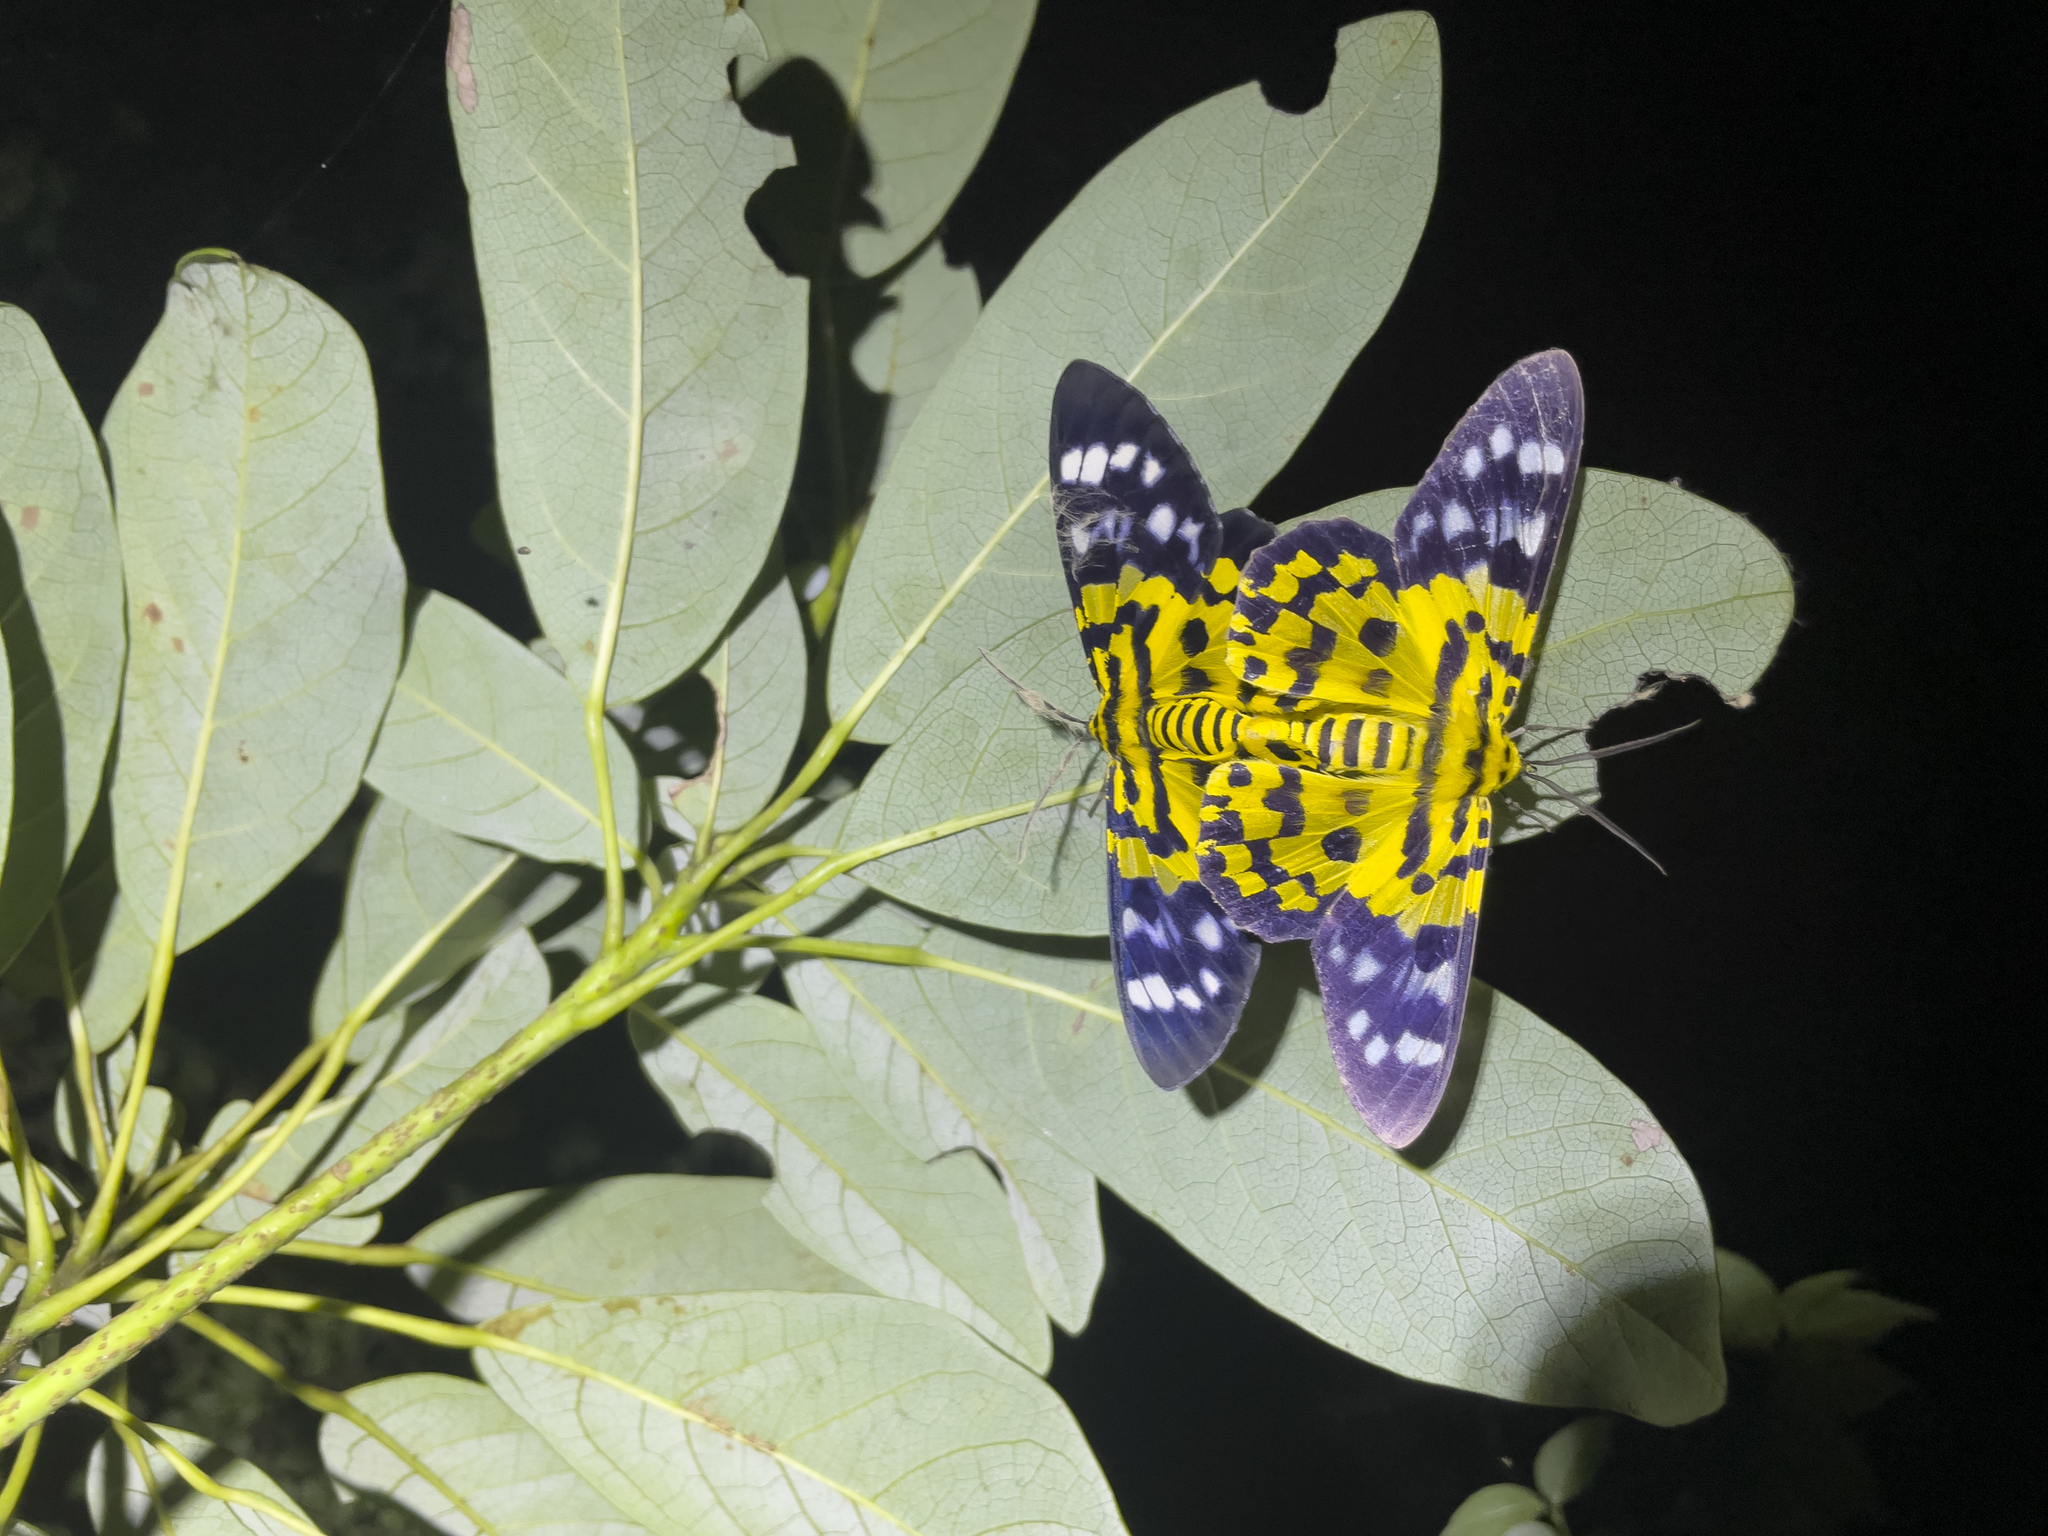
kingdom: Animalia
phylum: Arthropoda
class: Insecta
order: Lepidoptera
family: Geometridae
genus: Dysphania
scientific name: Dysphania militaris
